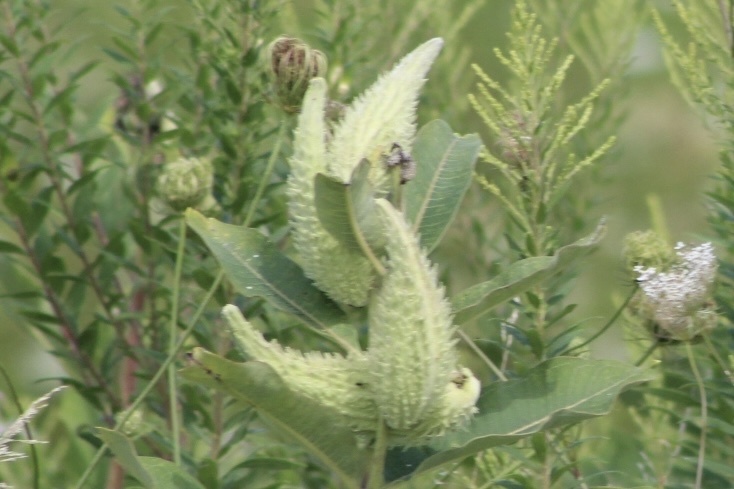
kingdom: Plantae
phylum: Tracheophyta
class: Magnoliopsida
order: Gentianales
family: Apocynaceae
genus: Asclepias
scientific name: Asclepias syriaca
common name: Common milkweed
